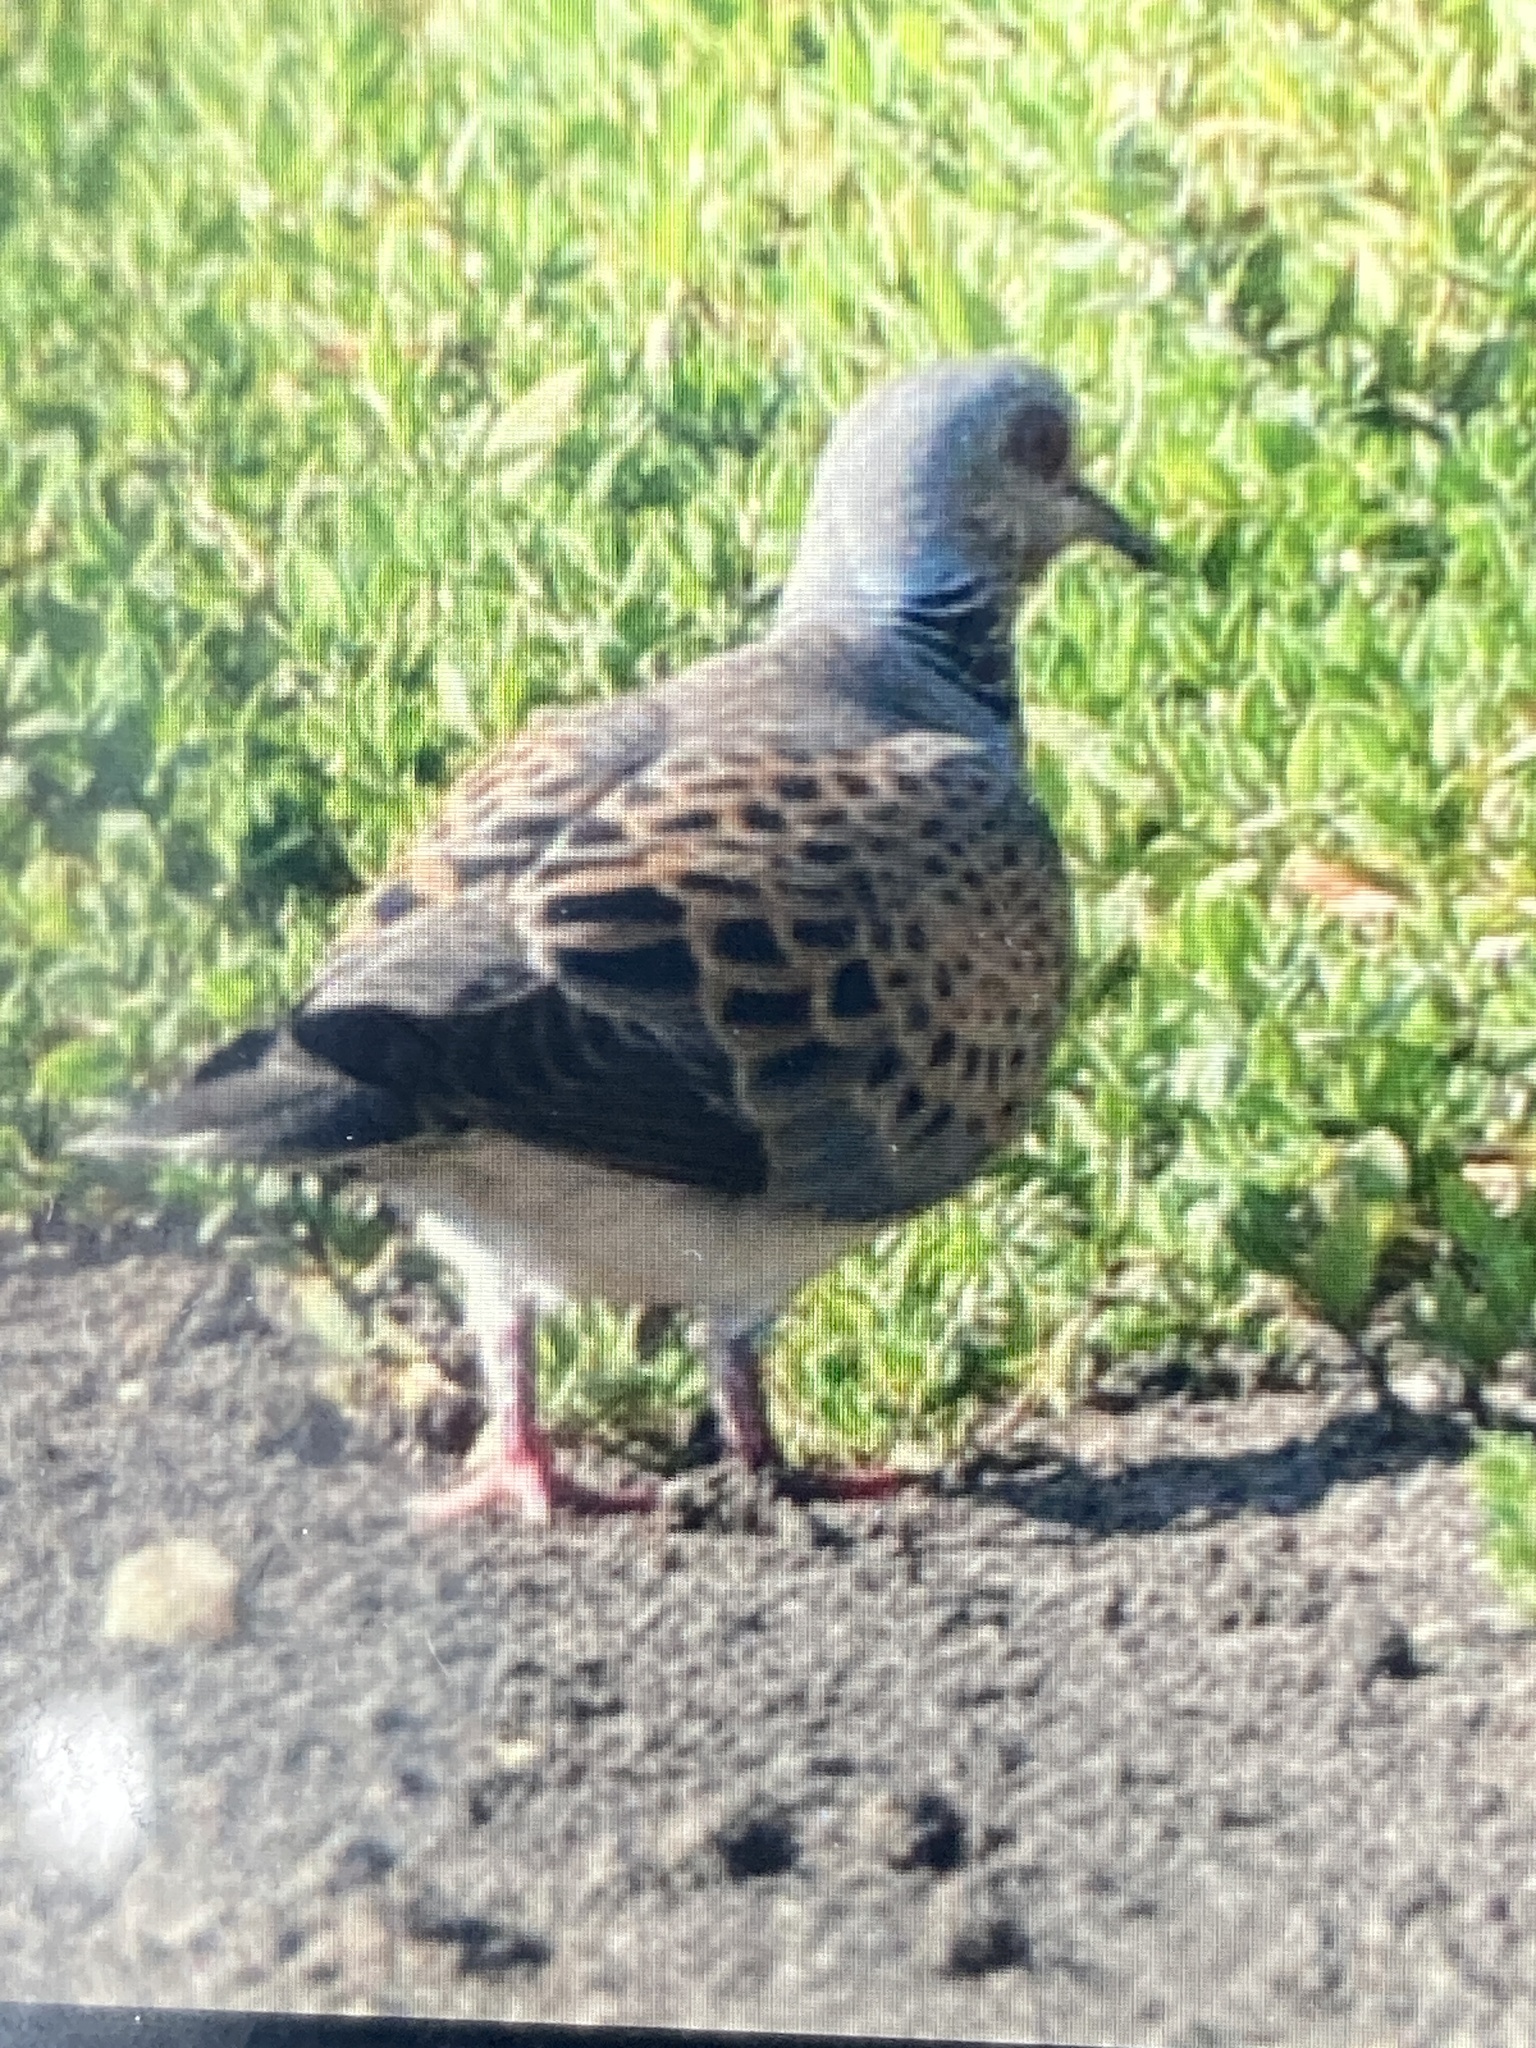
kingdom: Animalia
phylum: Chordata
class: Aves
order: Columbiformes
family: Columbidae
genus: Streptopelia
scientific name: Streptopelia turtur
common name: European turtle dove
